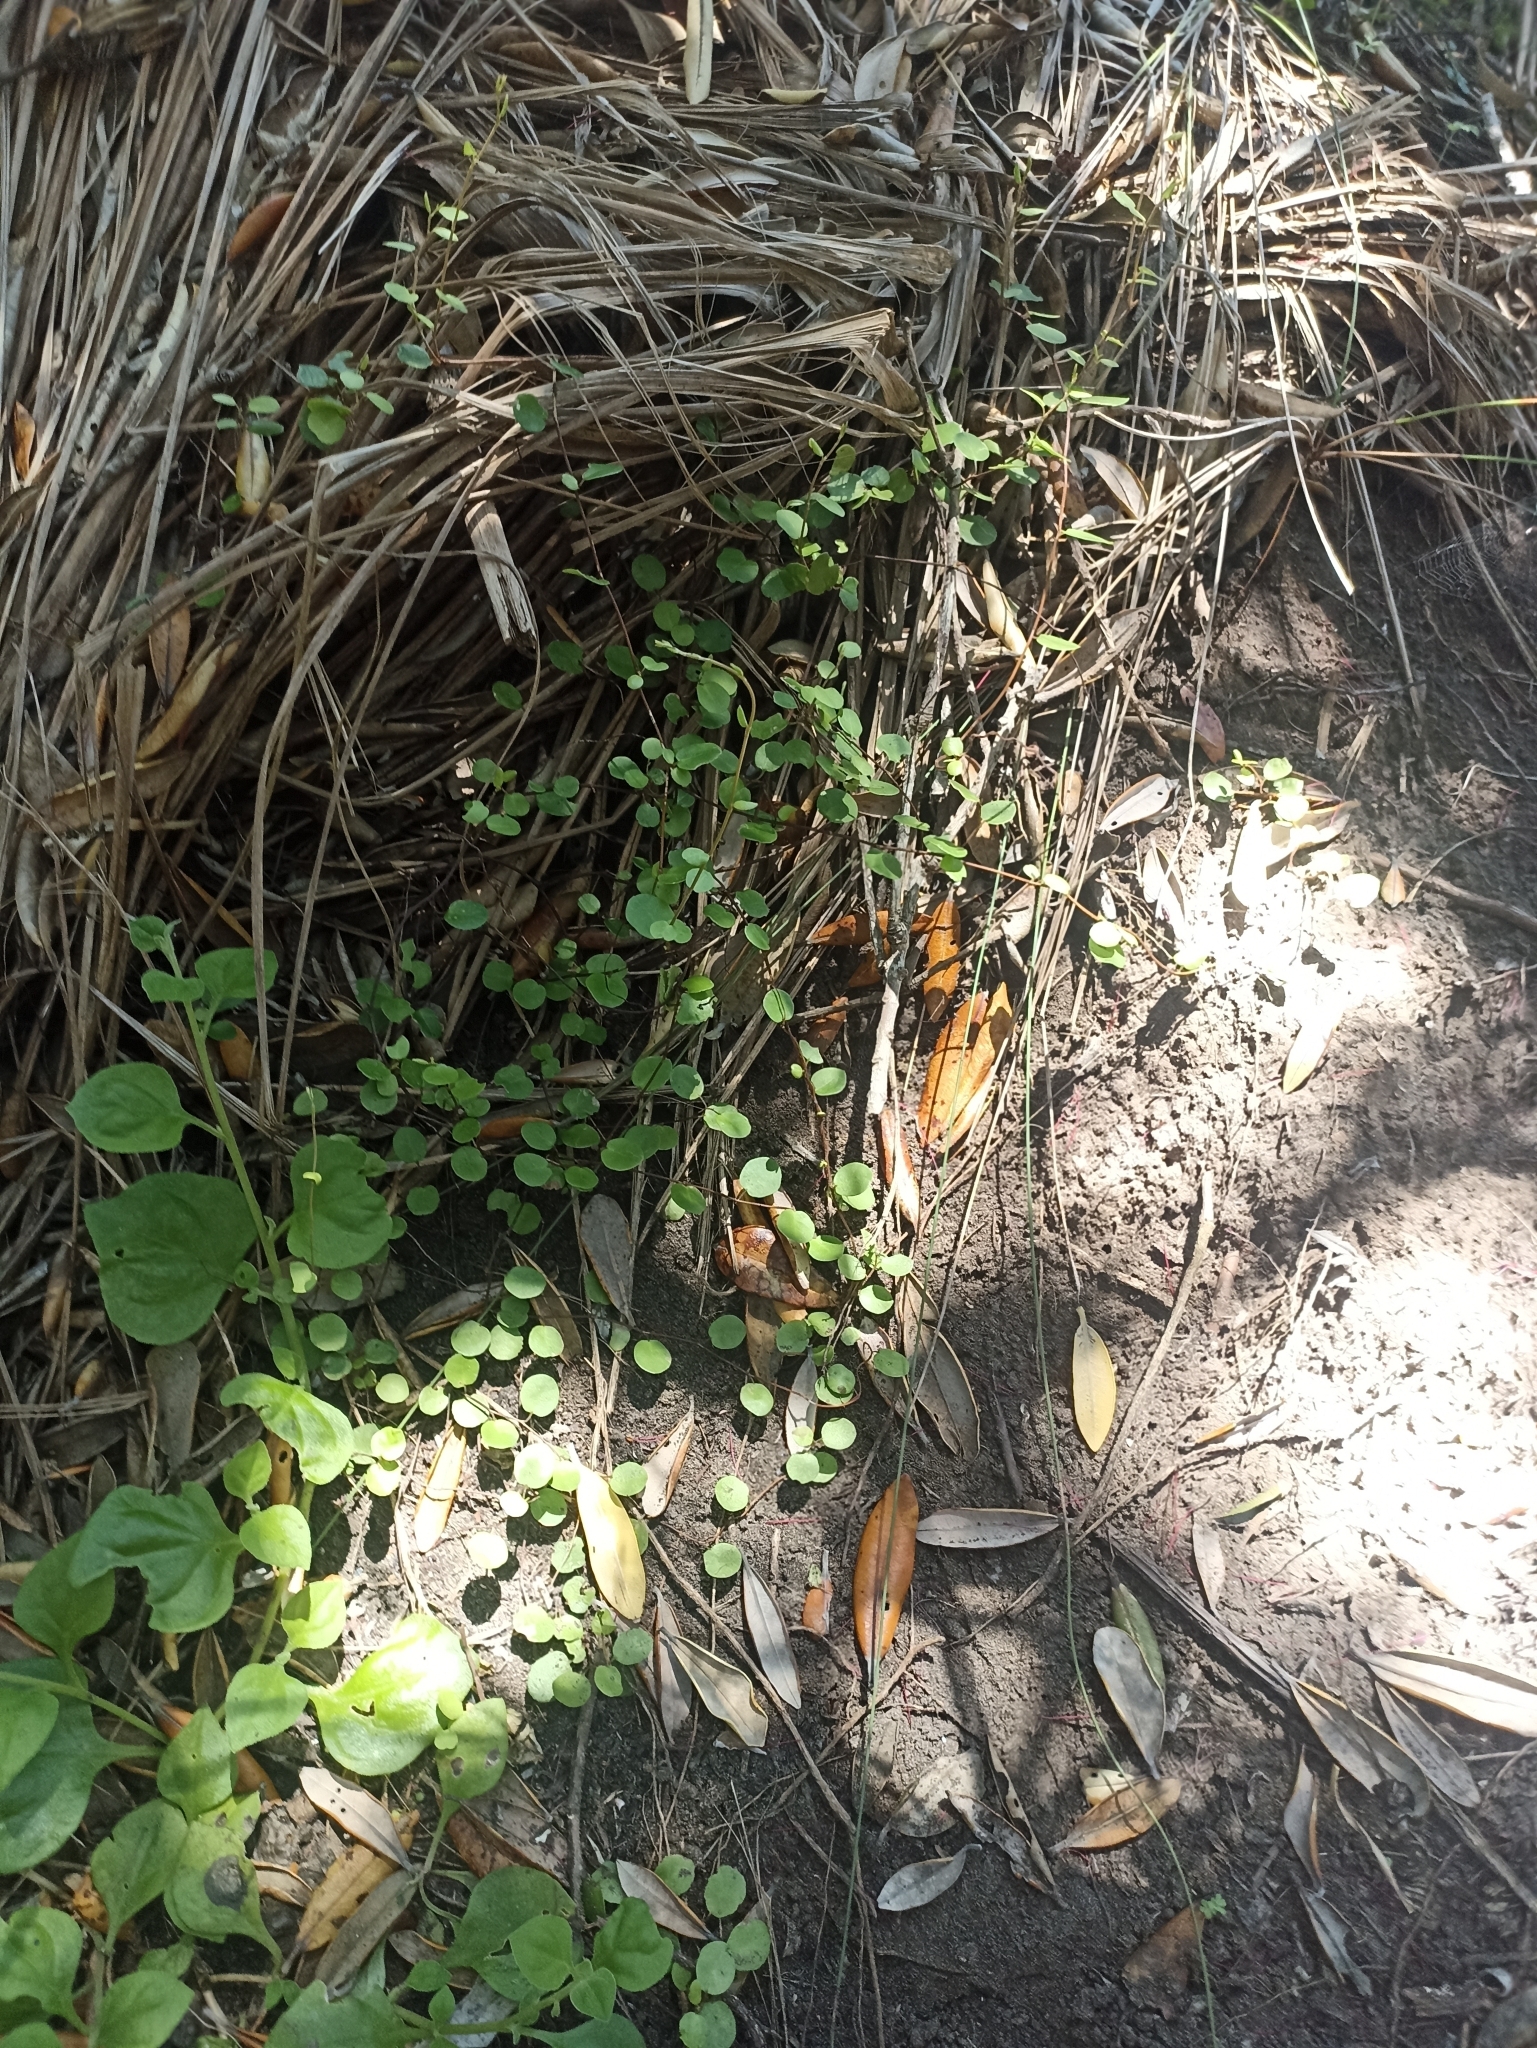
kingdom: Plantae
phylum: Tracheophyta
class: Magnoliopsida
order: Caryophyllales
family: Polygonaceae
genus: Muehlenbeckia
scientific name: Muehlenbeckia complexa
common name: Wireplant
